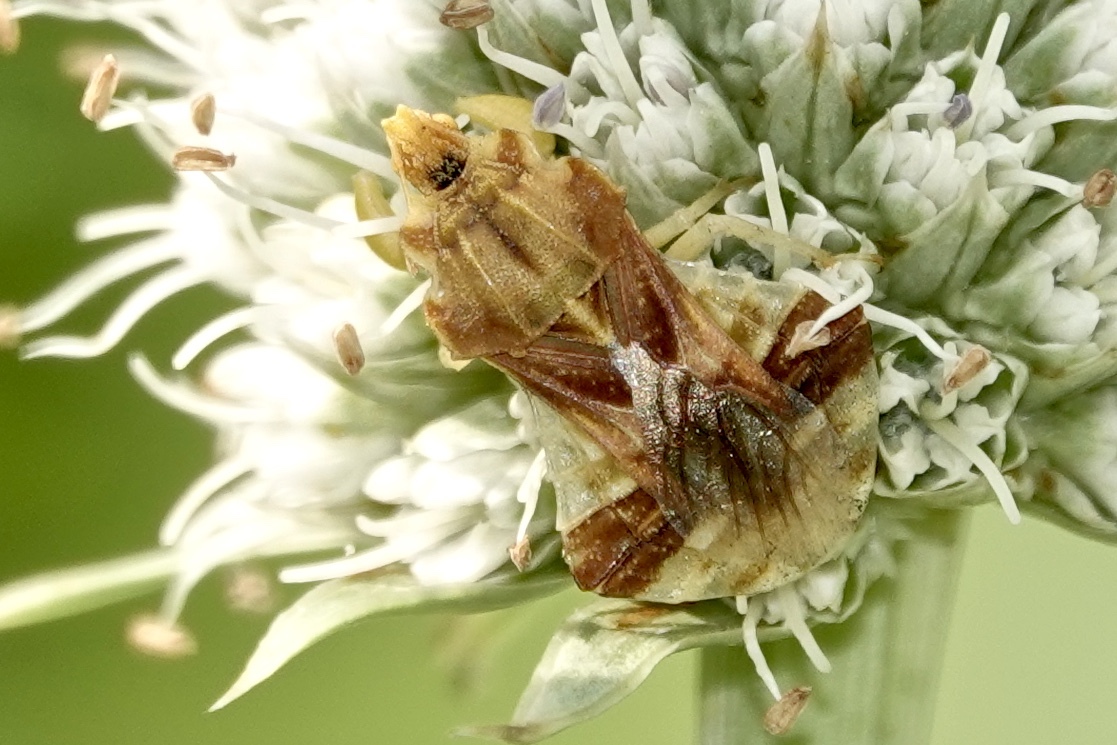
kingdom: Animalia
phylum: Arthropoda
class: Insecta
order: Hemiptera
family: Reduviidae
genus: Phymata
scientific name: Phymata fasciata
